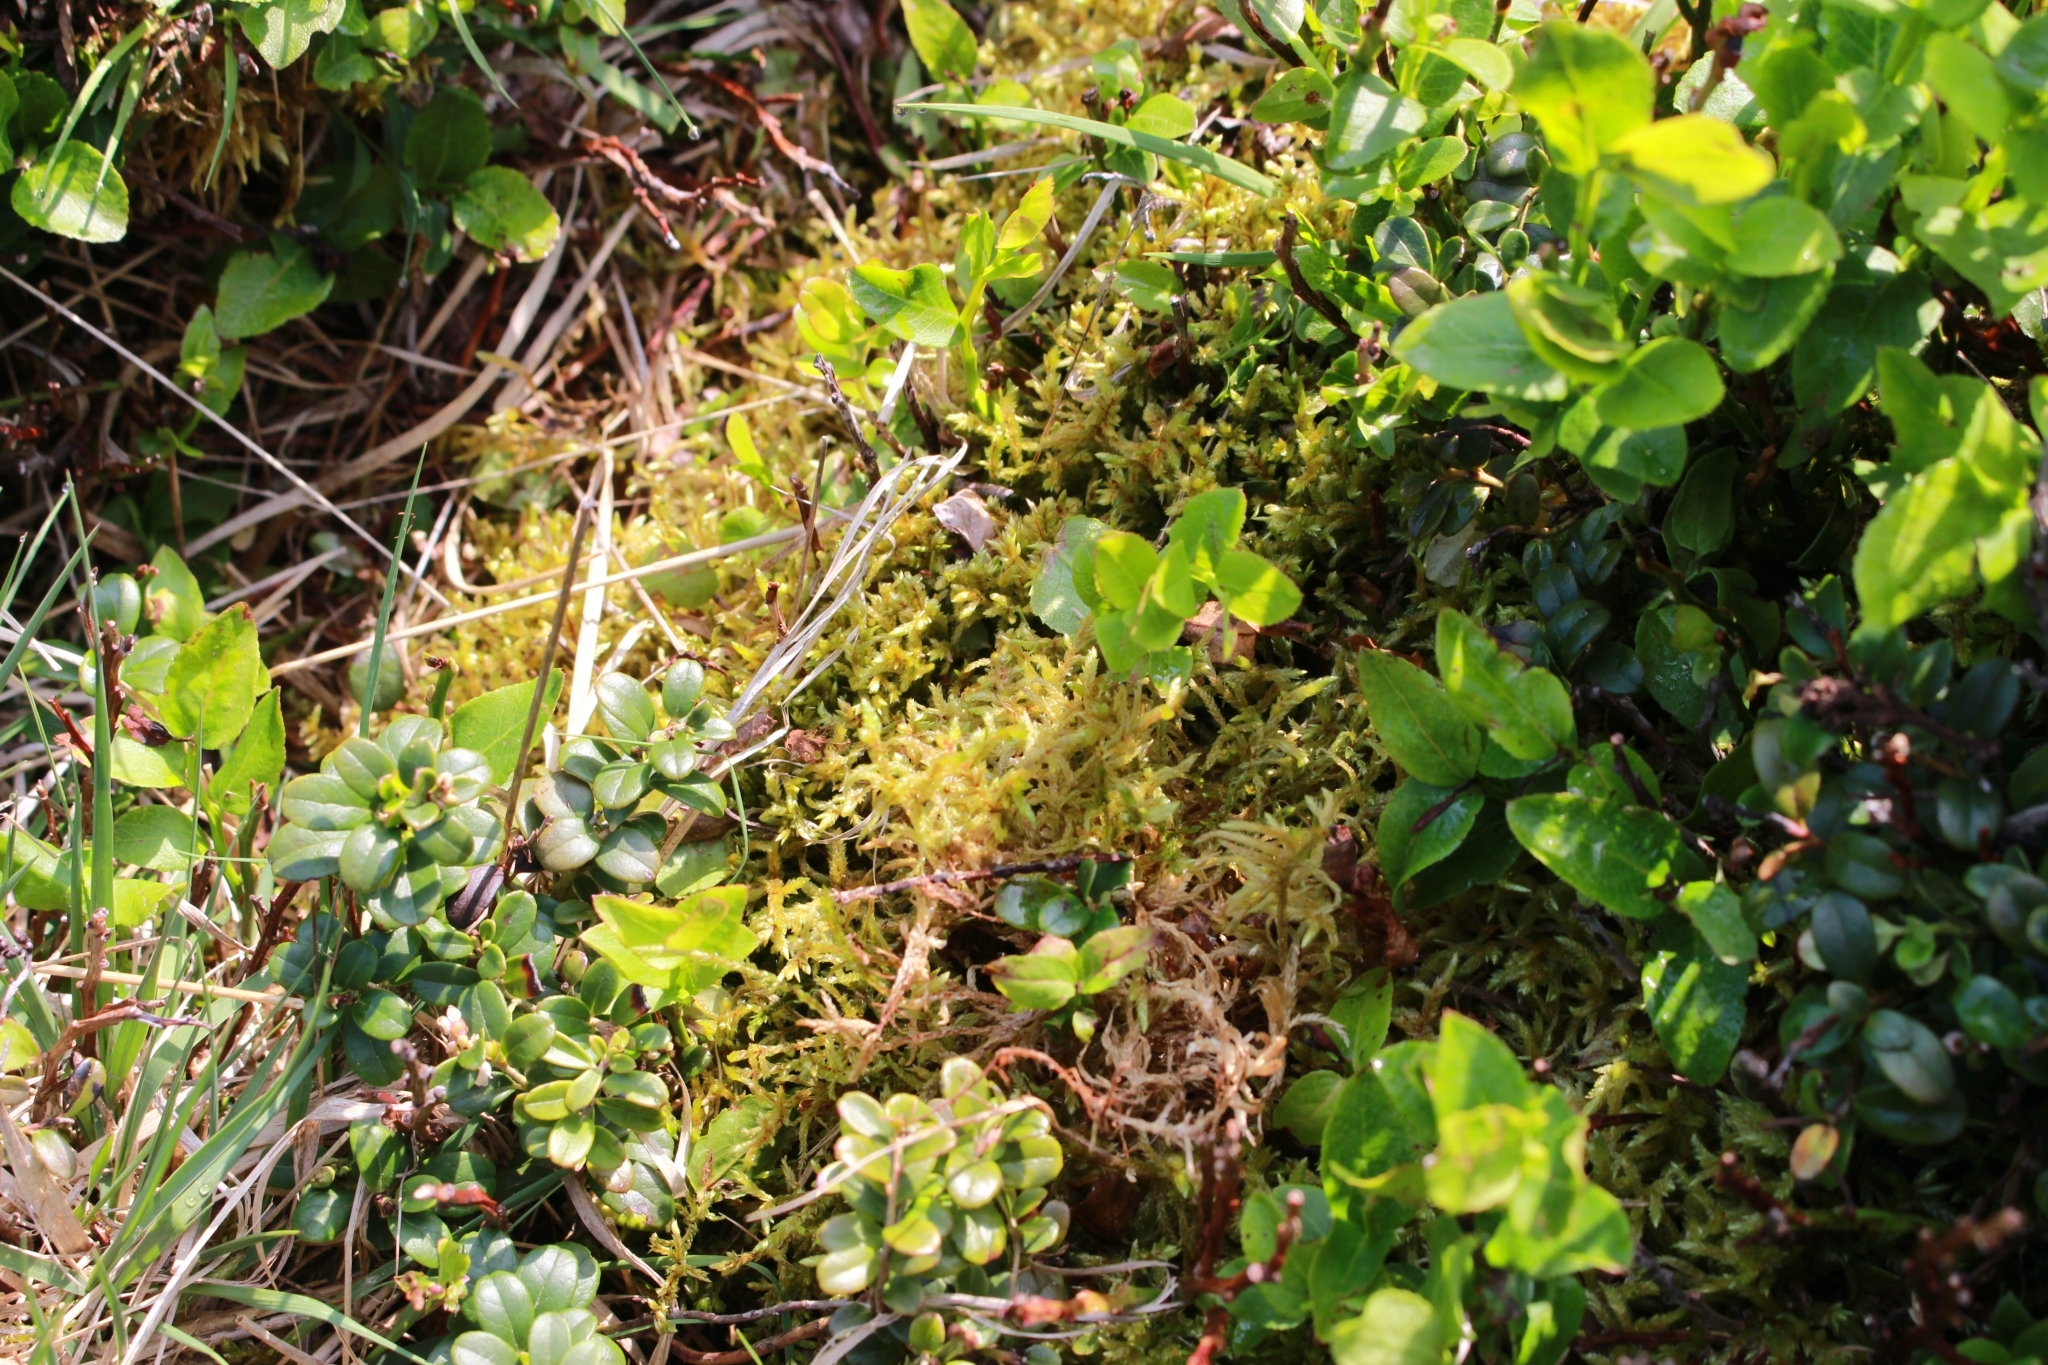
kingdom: Plantae
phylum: Bryophyta
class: Bryopsida
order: Hypnales
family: Hylocomiaceae
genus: Pleurozium
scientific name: Pleurozium schreberi
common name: Red-stemmed feather moss
